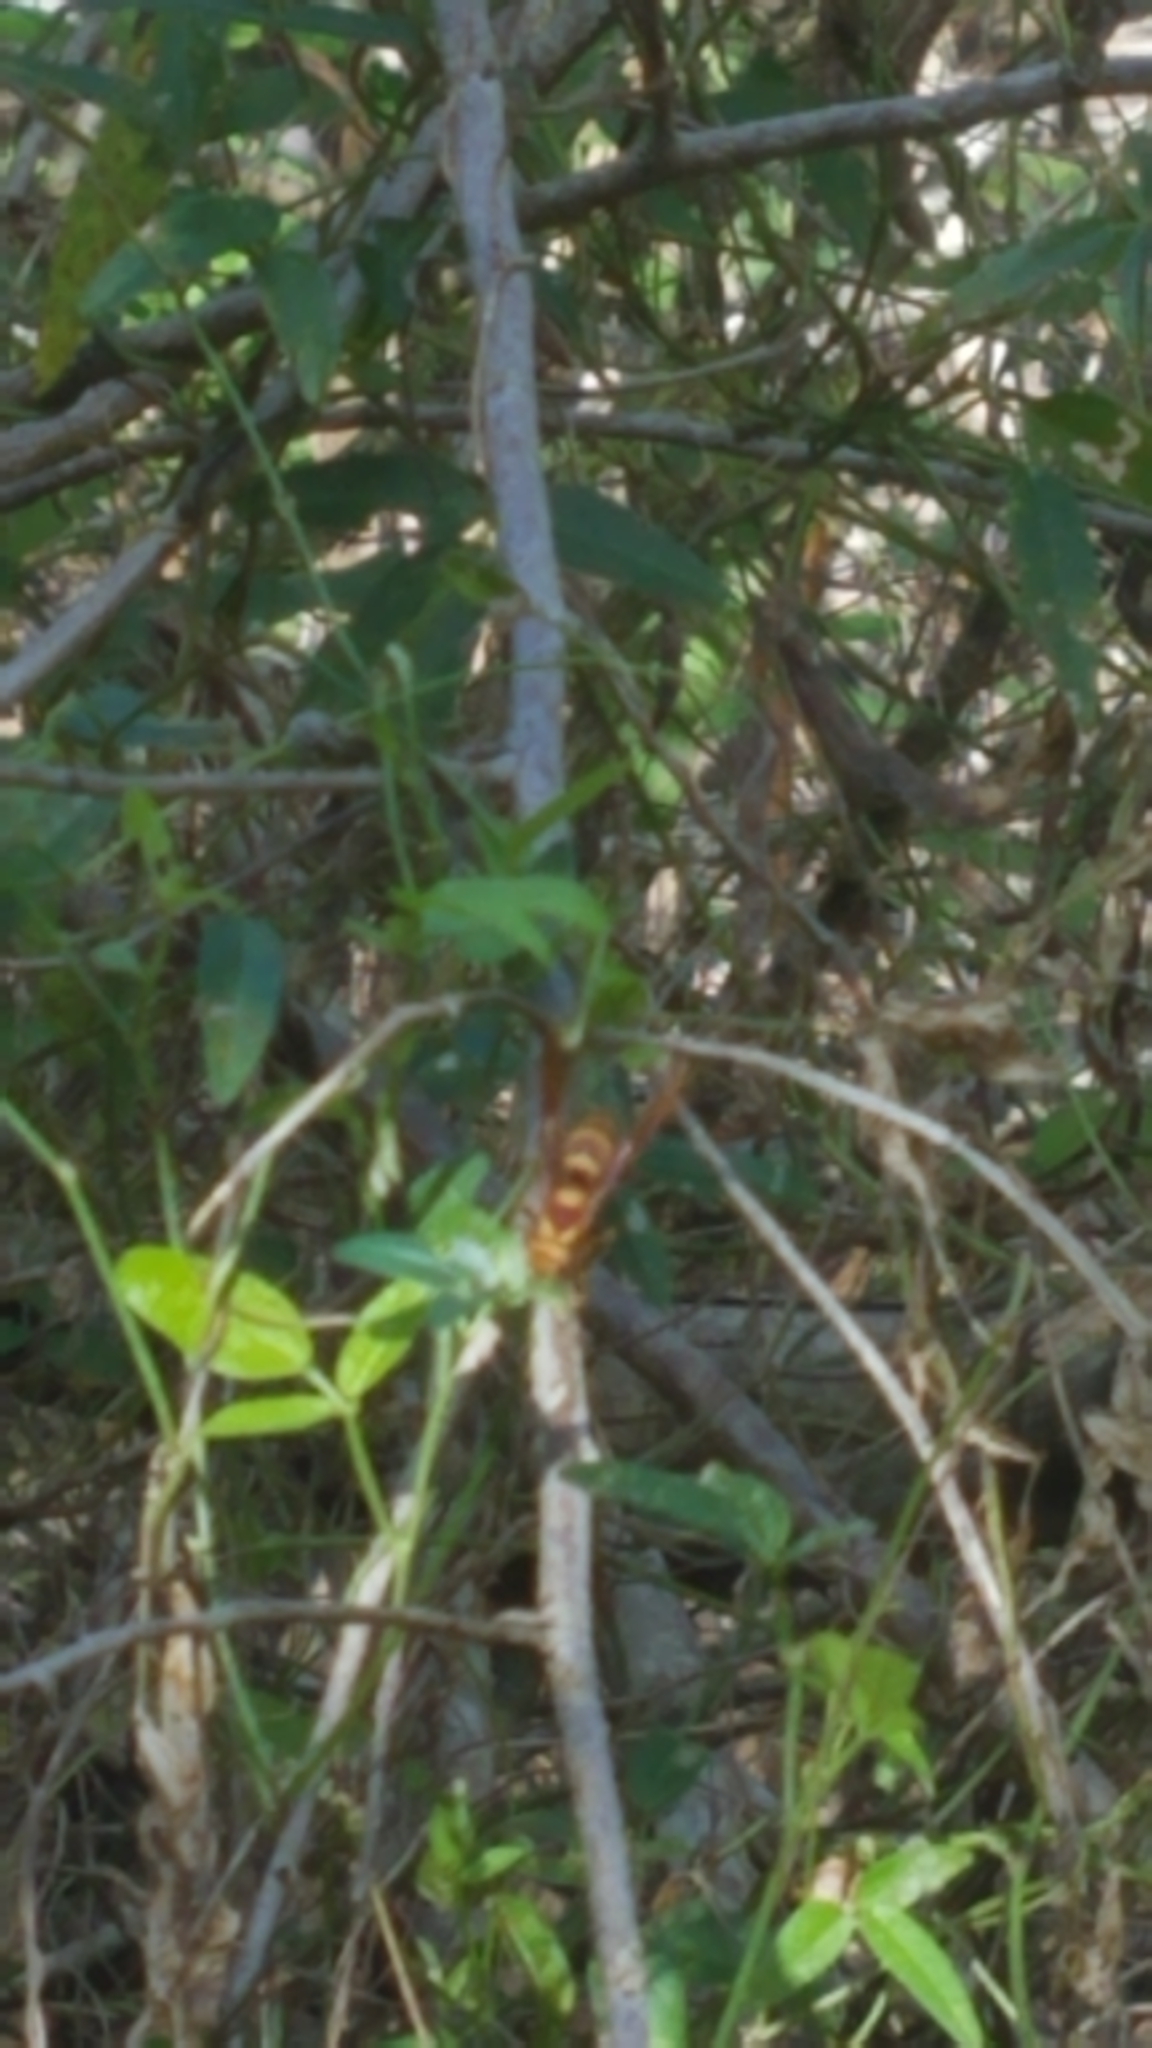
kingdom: Animalia
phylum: Arthropoda
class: Insecta
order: Hymenoptera
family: Eumenidae
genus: Polistes
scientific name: Polistes major
